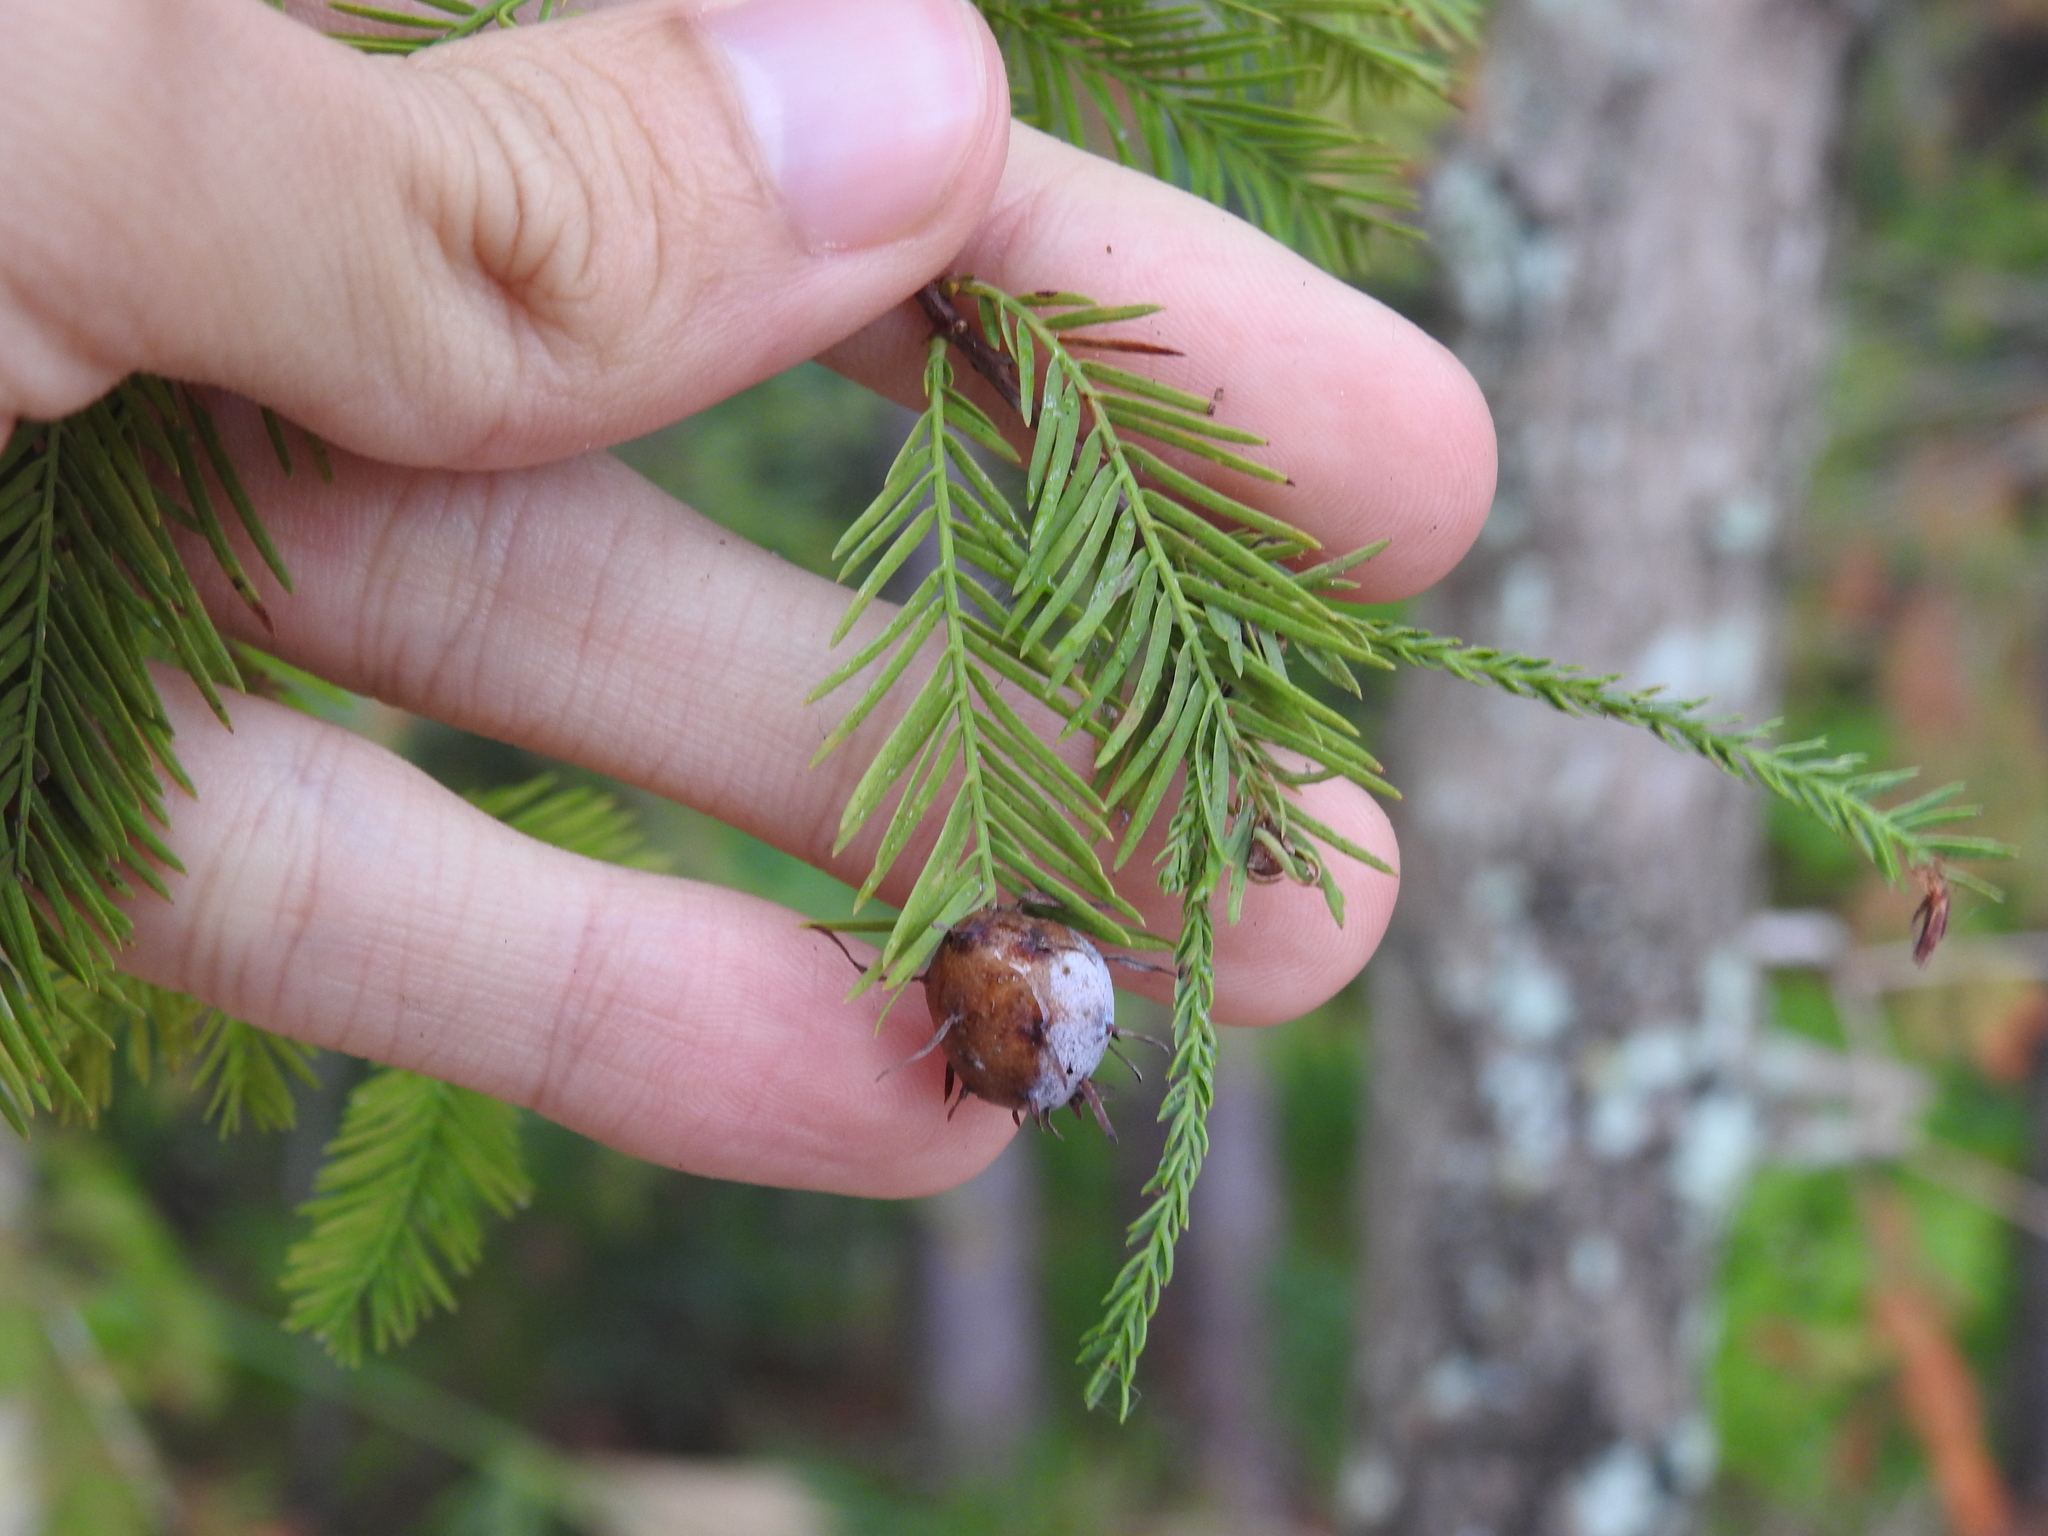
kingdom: Animalia
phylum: Arthropoda
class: Insecta
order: Diptera
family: Cecidomyiidae
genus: Taxodiomyia
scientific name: Taxodiomyia cupressiananassa
